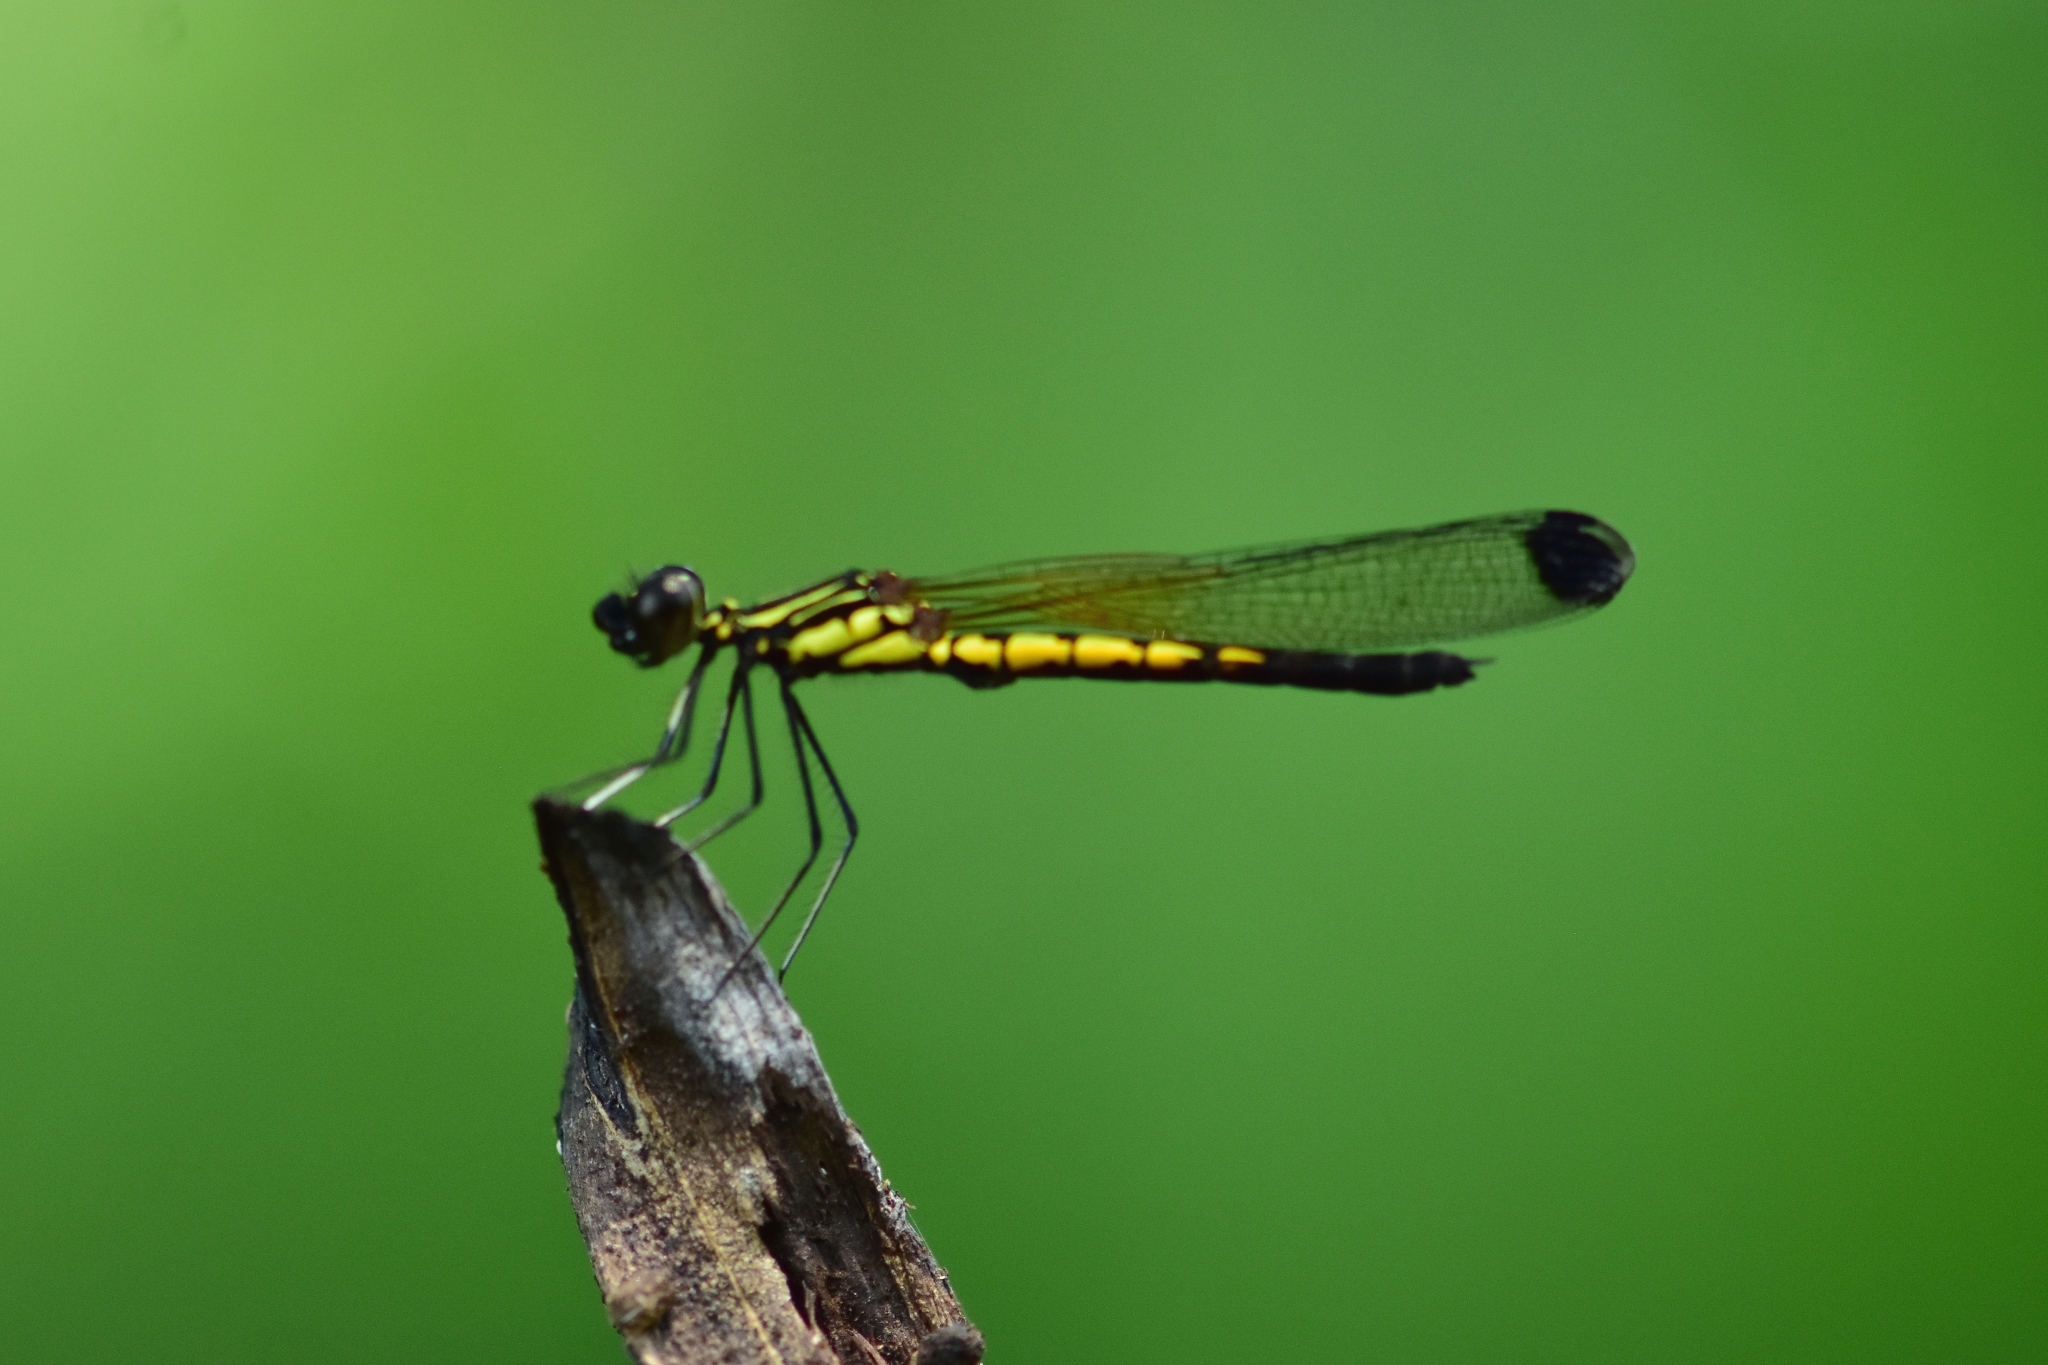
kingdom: Animalia
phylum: Arthropoda
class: Insecta
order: Odonata
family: Chlorocyphidae
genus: Libellago
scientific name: Libellago indica
